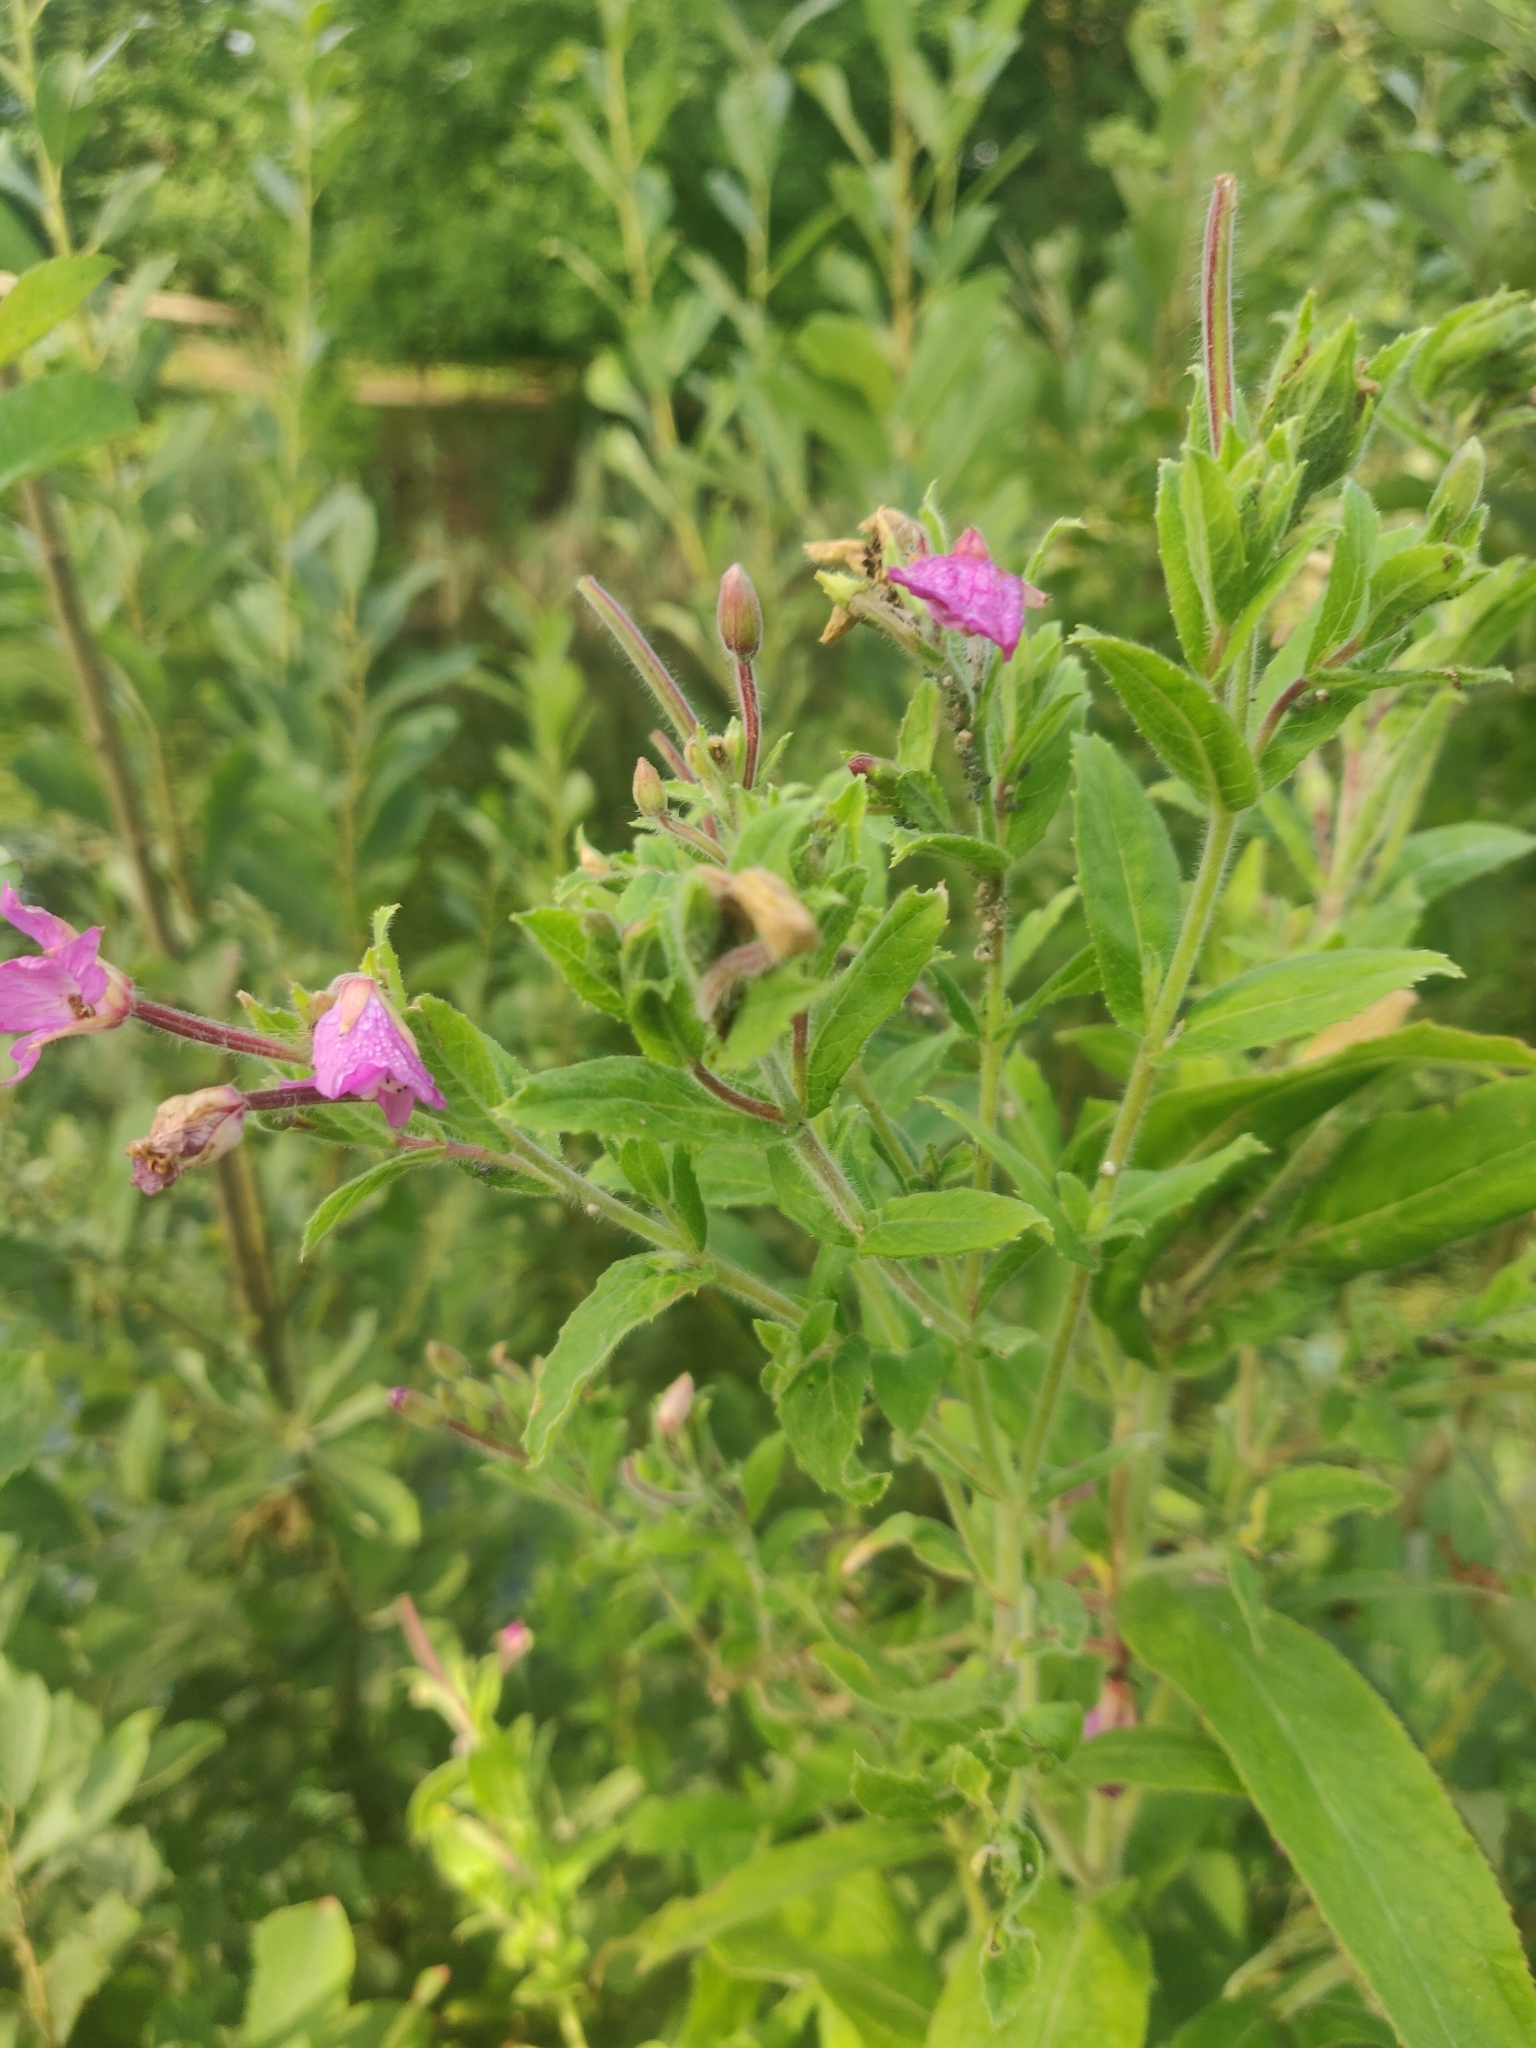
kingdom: Plantae
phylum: Tracheophyta
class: Magnoliopsida
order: Myrtales
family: Onagraceae
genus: Epilobium
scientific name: Epilobium hirsutum
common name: Great willowherb
